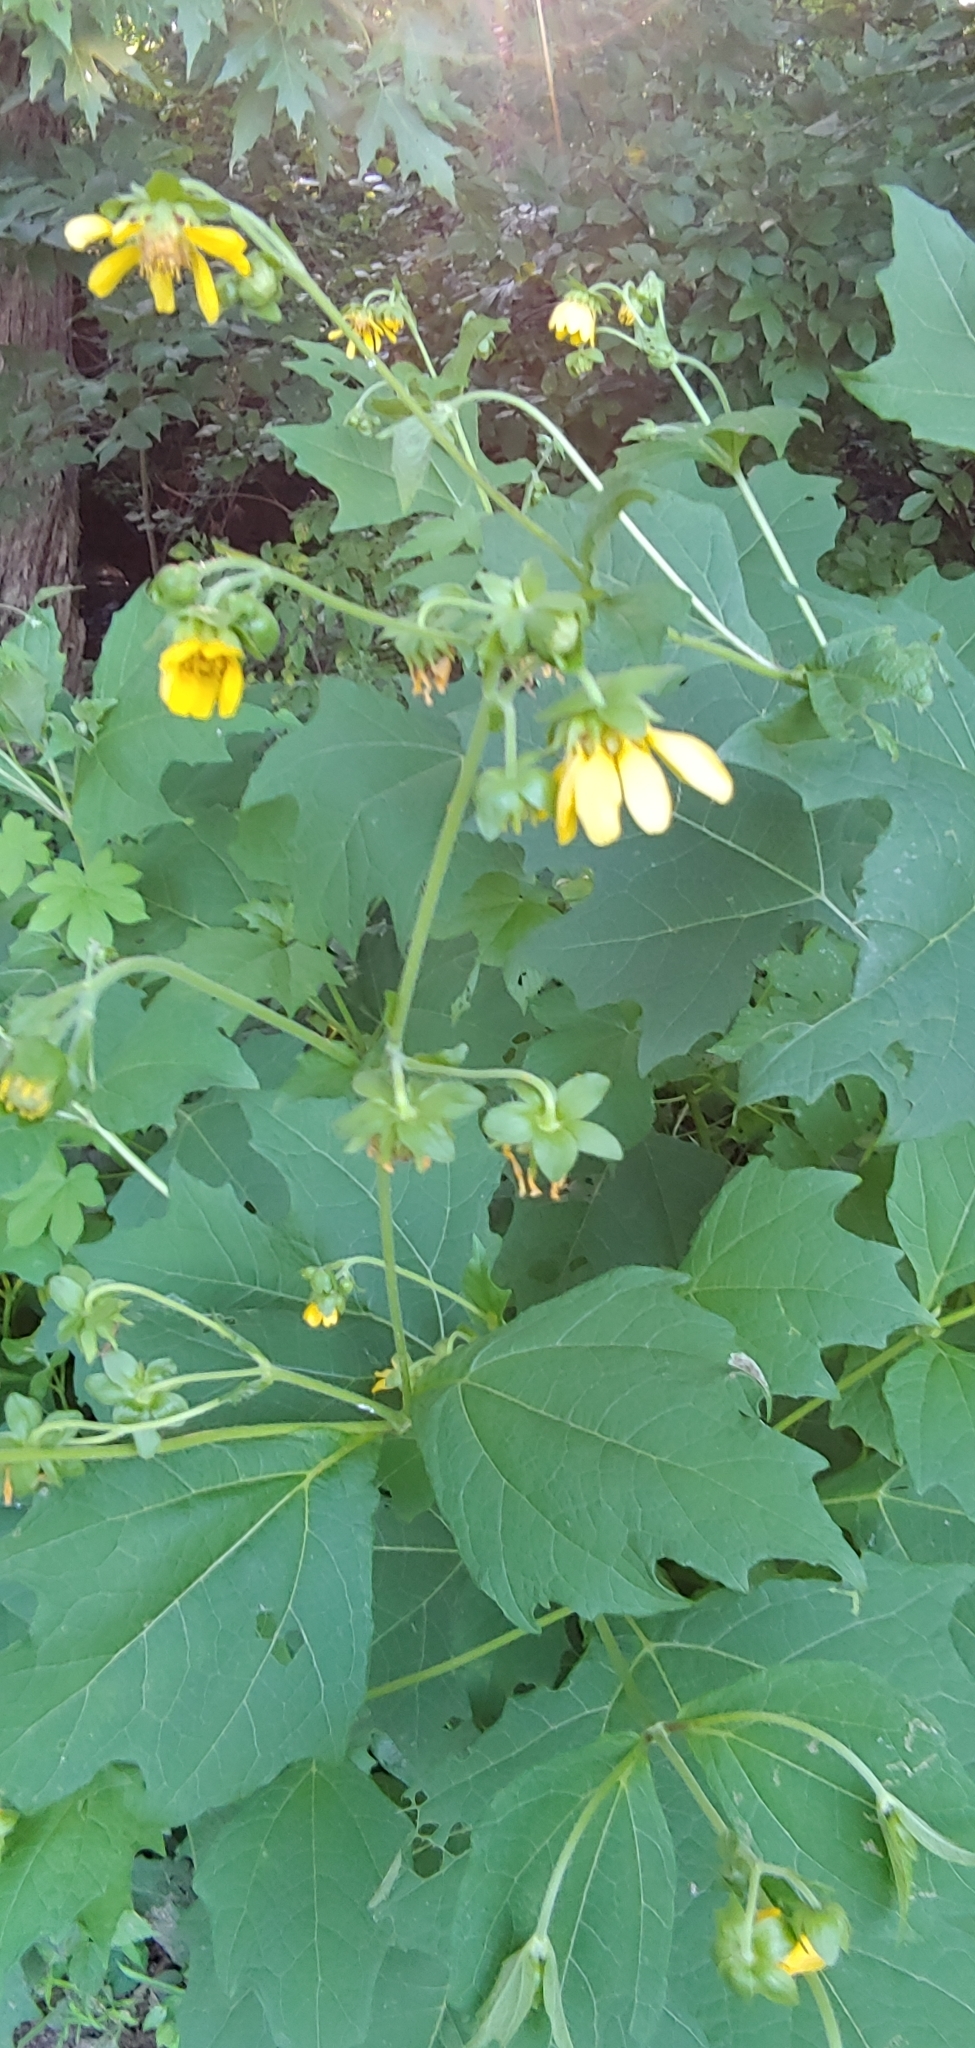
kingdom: Plantae
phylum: Tracheophyta
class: Magnoliopsida
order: Asterales
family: Asteraceae
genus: Smallanthus
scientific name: Smallanthus uvedalia
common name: Bear's-foot
